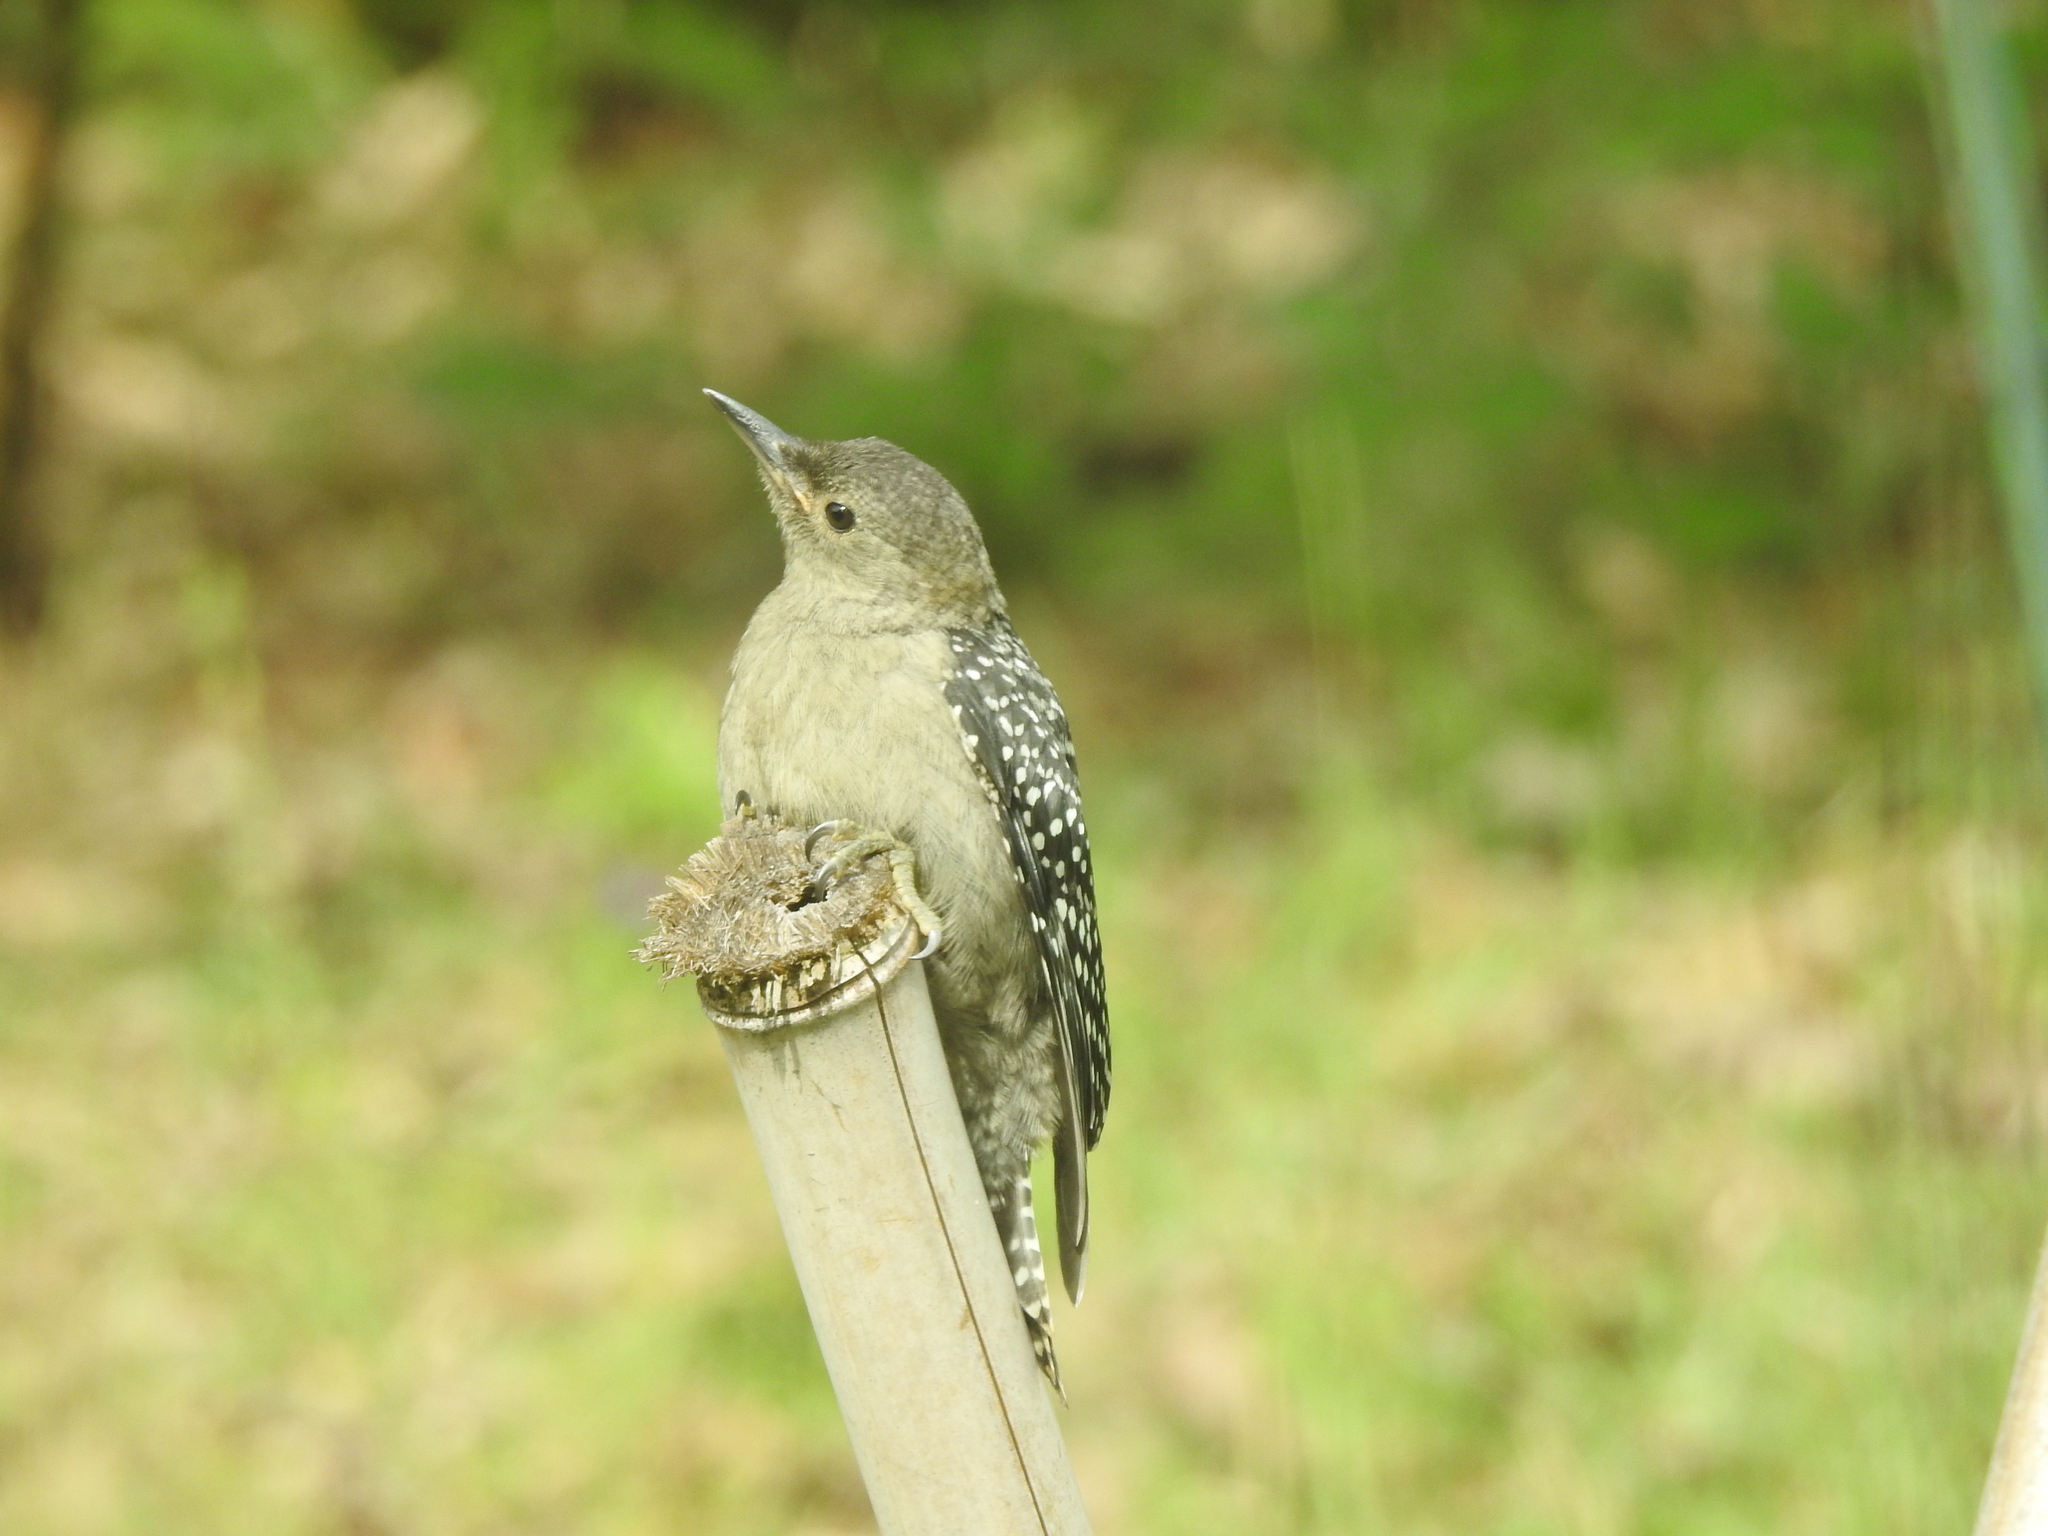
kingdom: Animalia
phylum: Chordata
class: Aves
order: Piciformes
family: Picidae
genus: Melanerpes
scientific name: Melanerpes carolinus
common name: Red-bellied woodpecker
